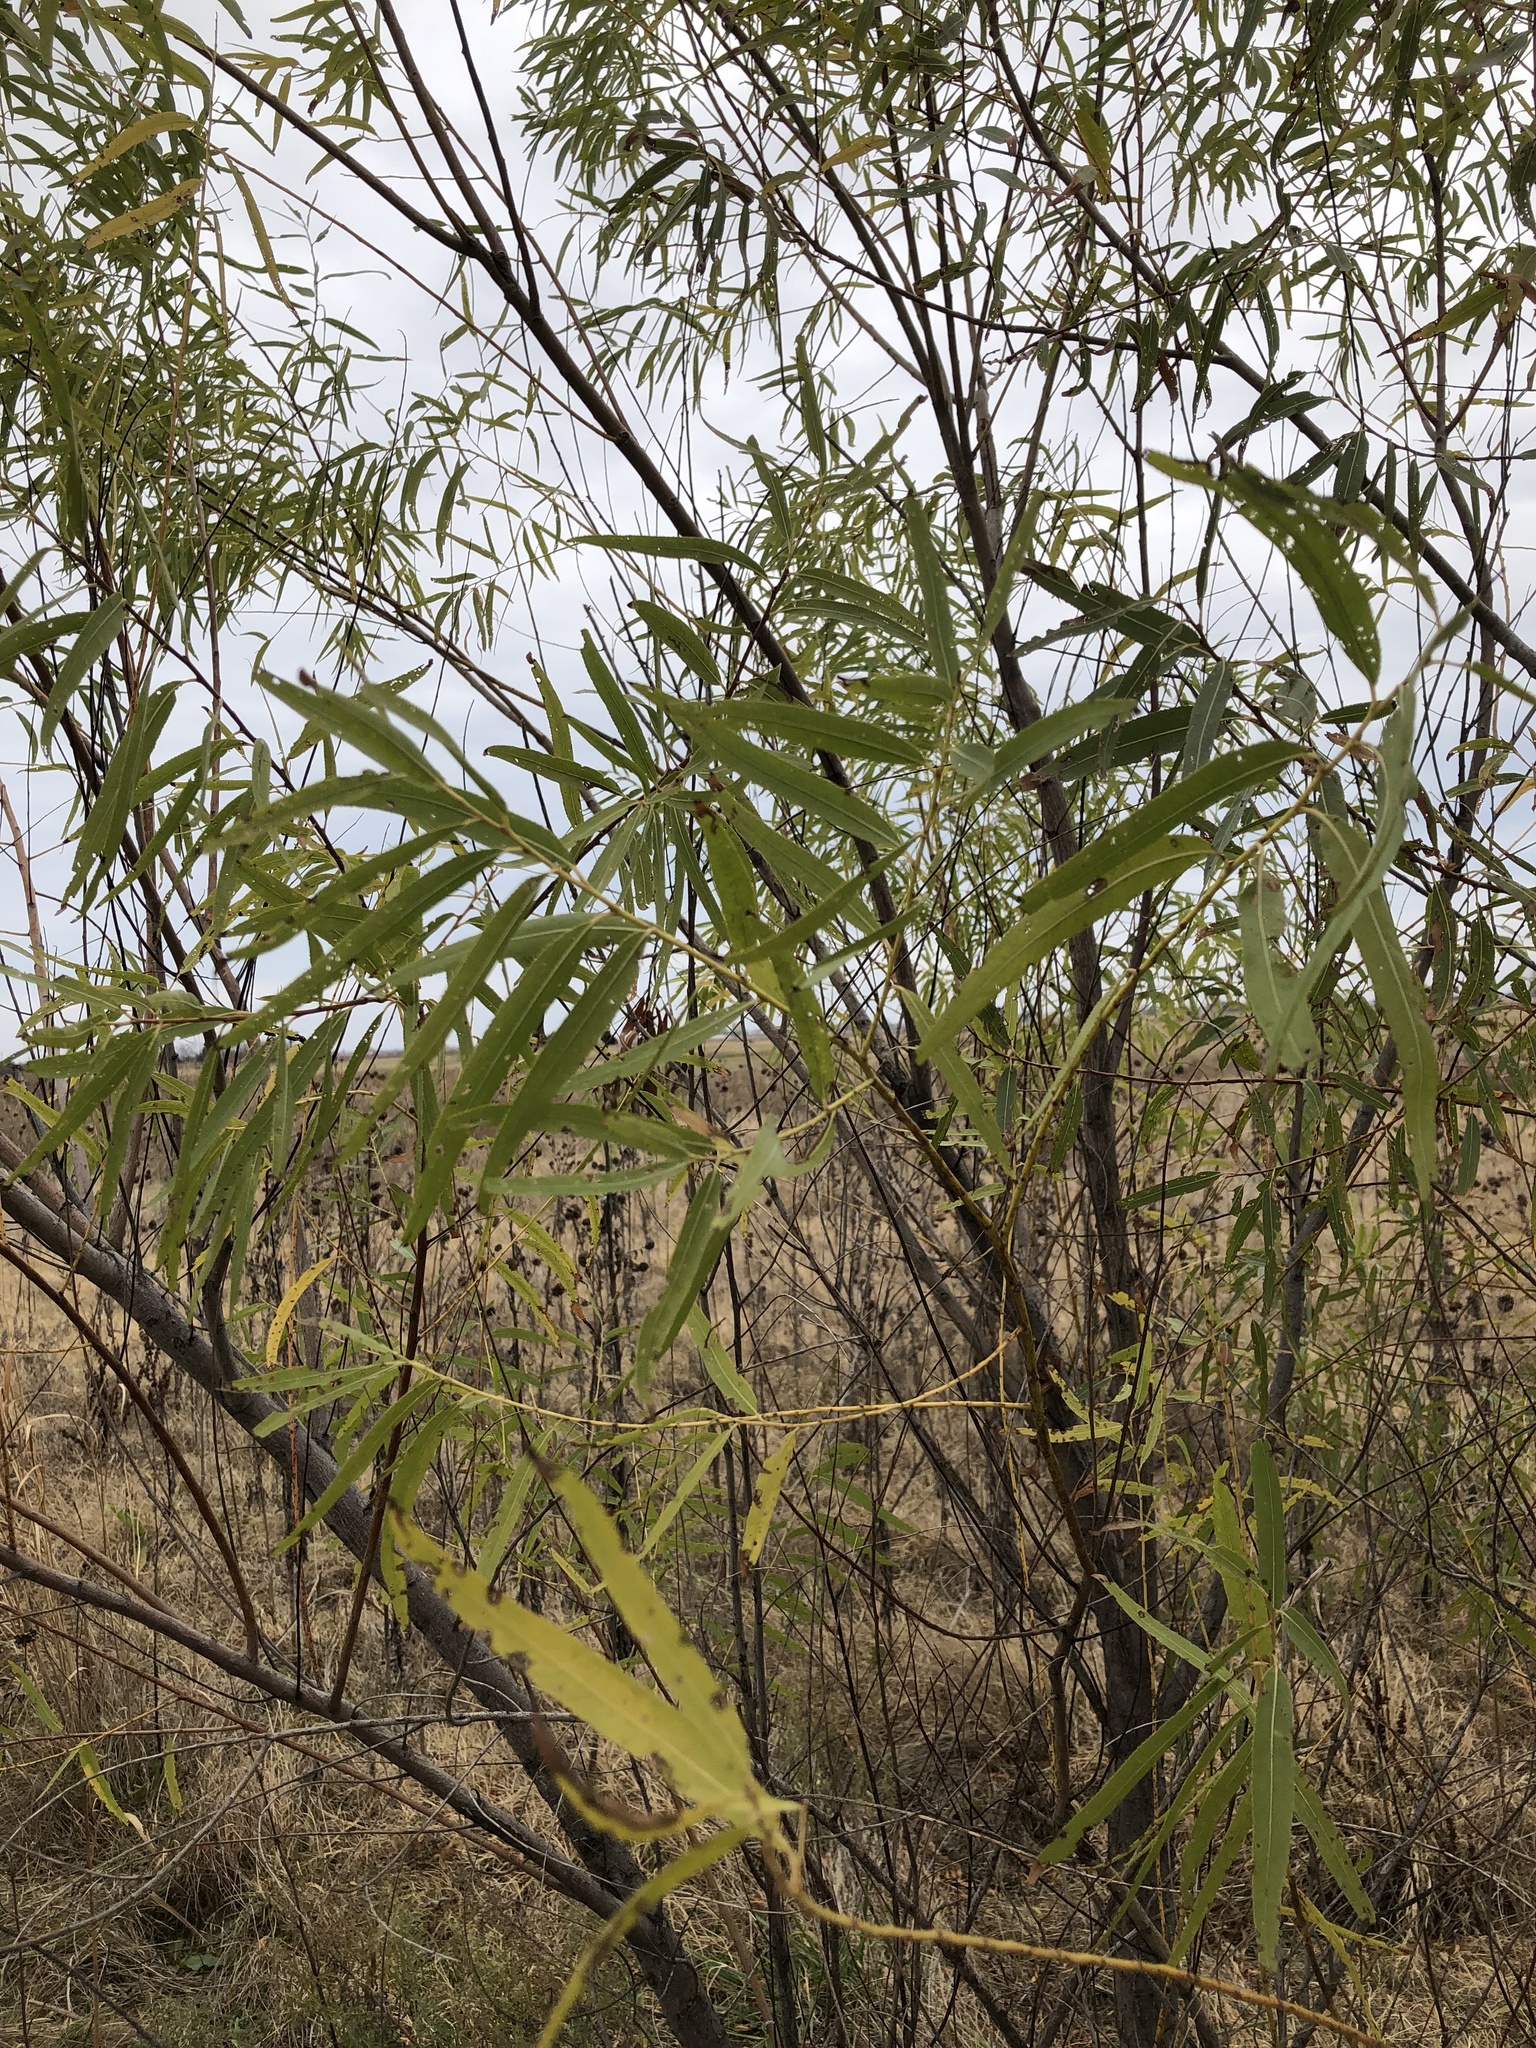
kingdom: Plantae
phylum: Tracheophyta
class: Magnoliopsida
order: Malpighiales
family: Salicaceae
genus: Salix
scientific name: Salix nigra
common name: Black willow
